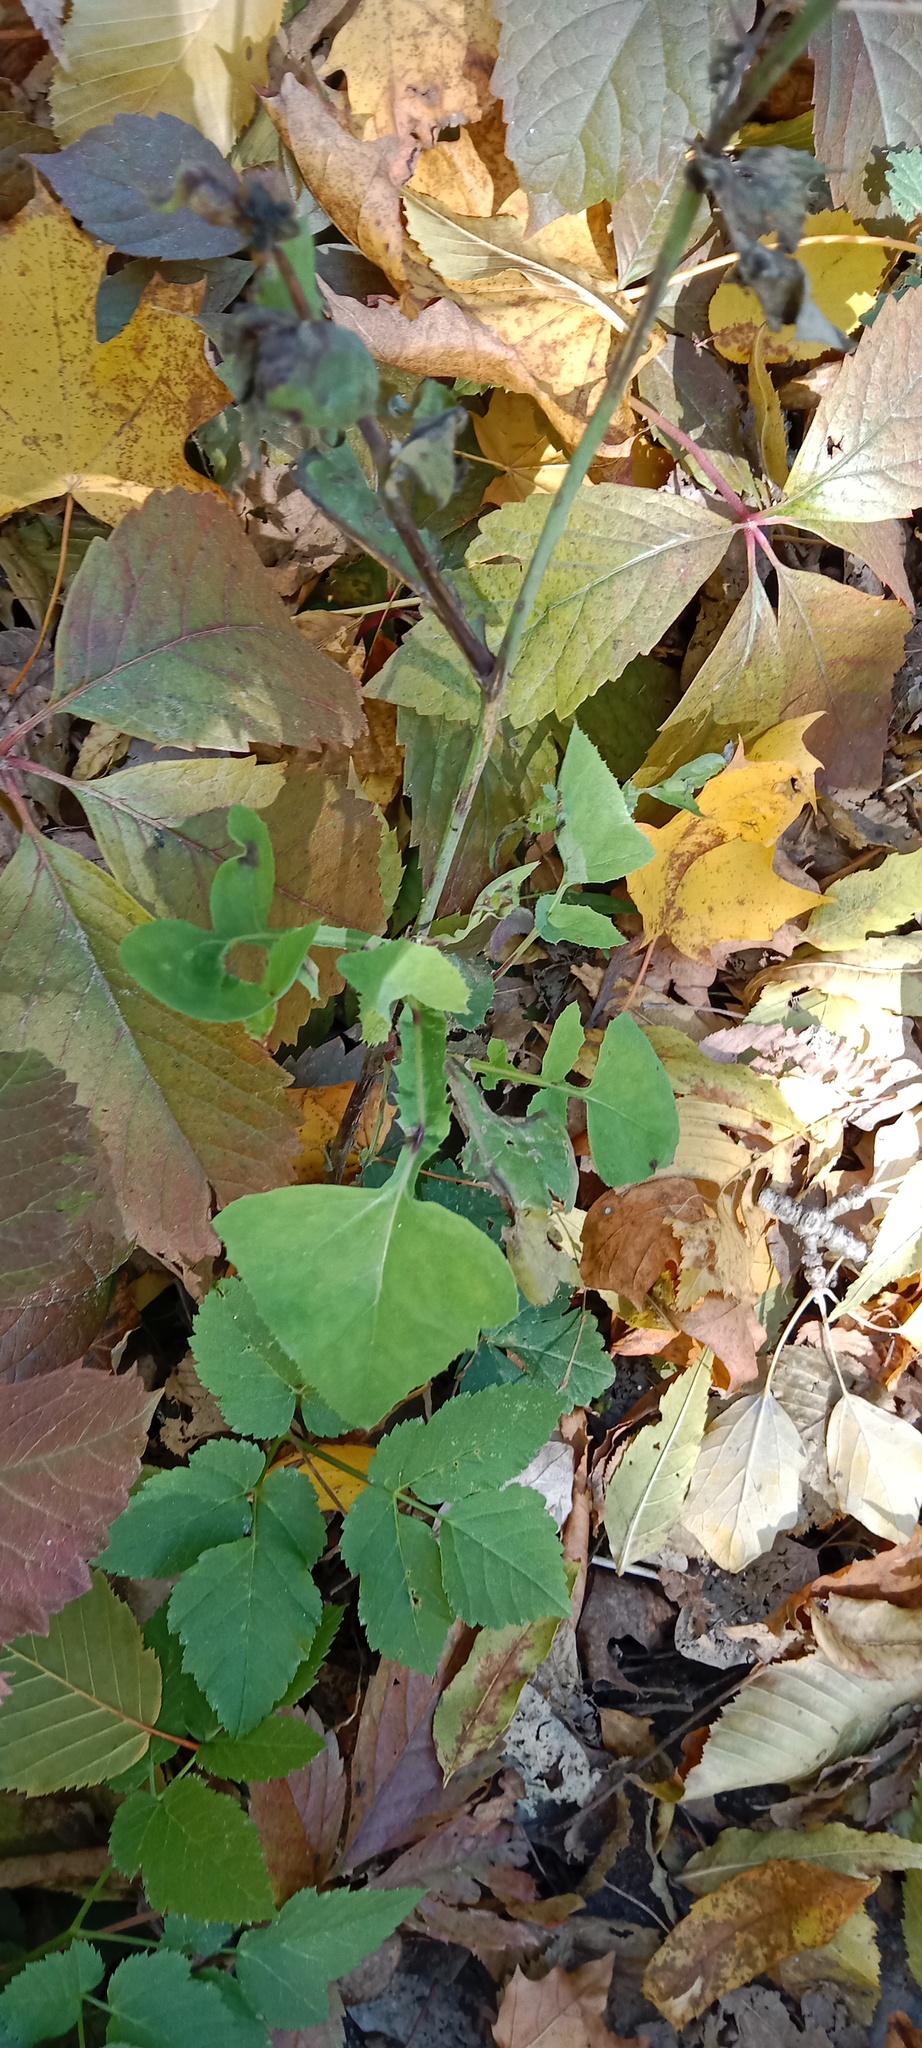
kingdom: Plantae
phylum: Tracheophyta
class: Magnoliopsida
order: Asterales
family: Asteraceae
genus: Sonchus
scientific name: Sonchus oleraceus
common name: Common sowthistle
